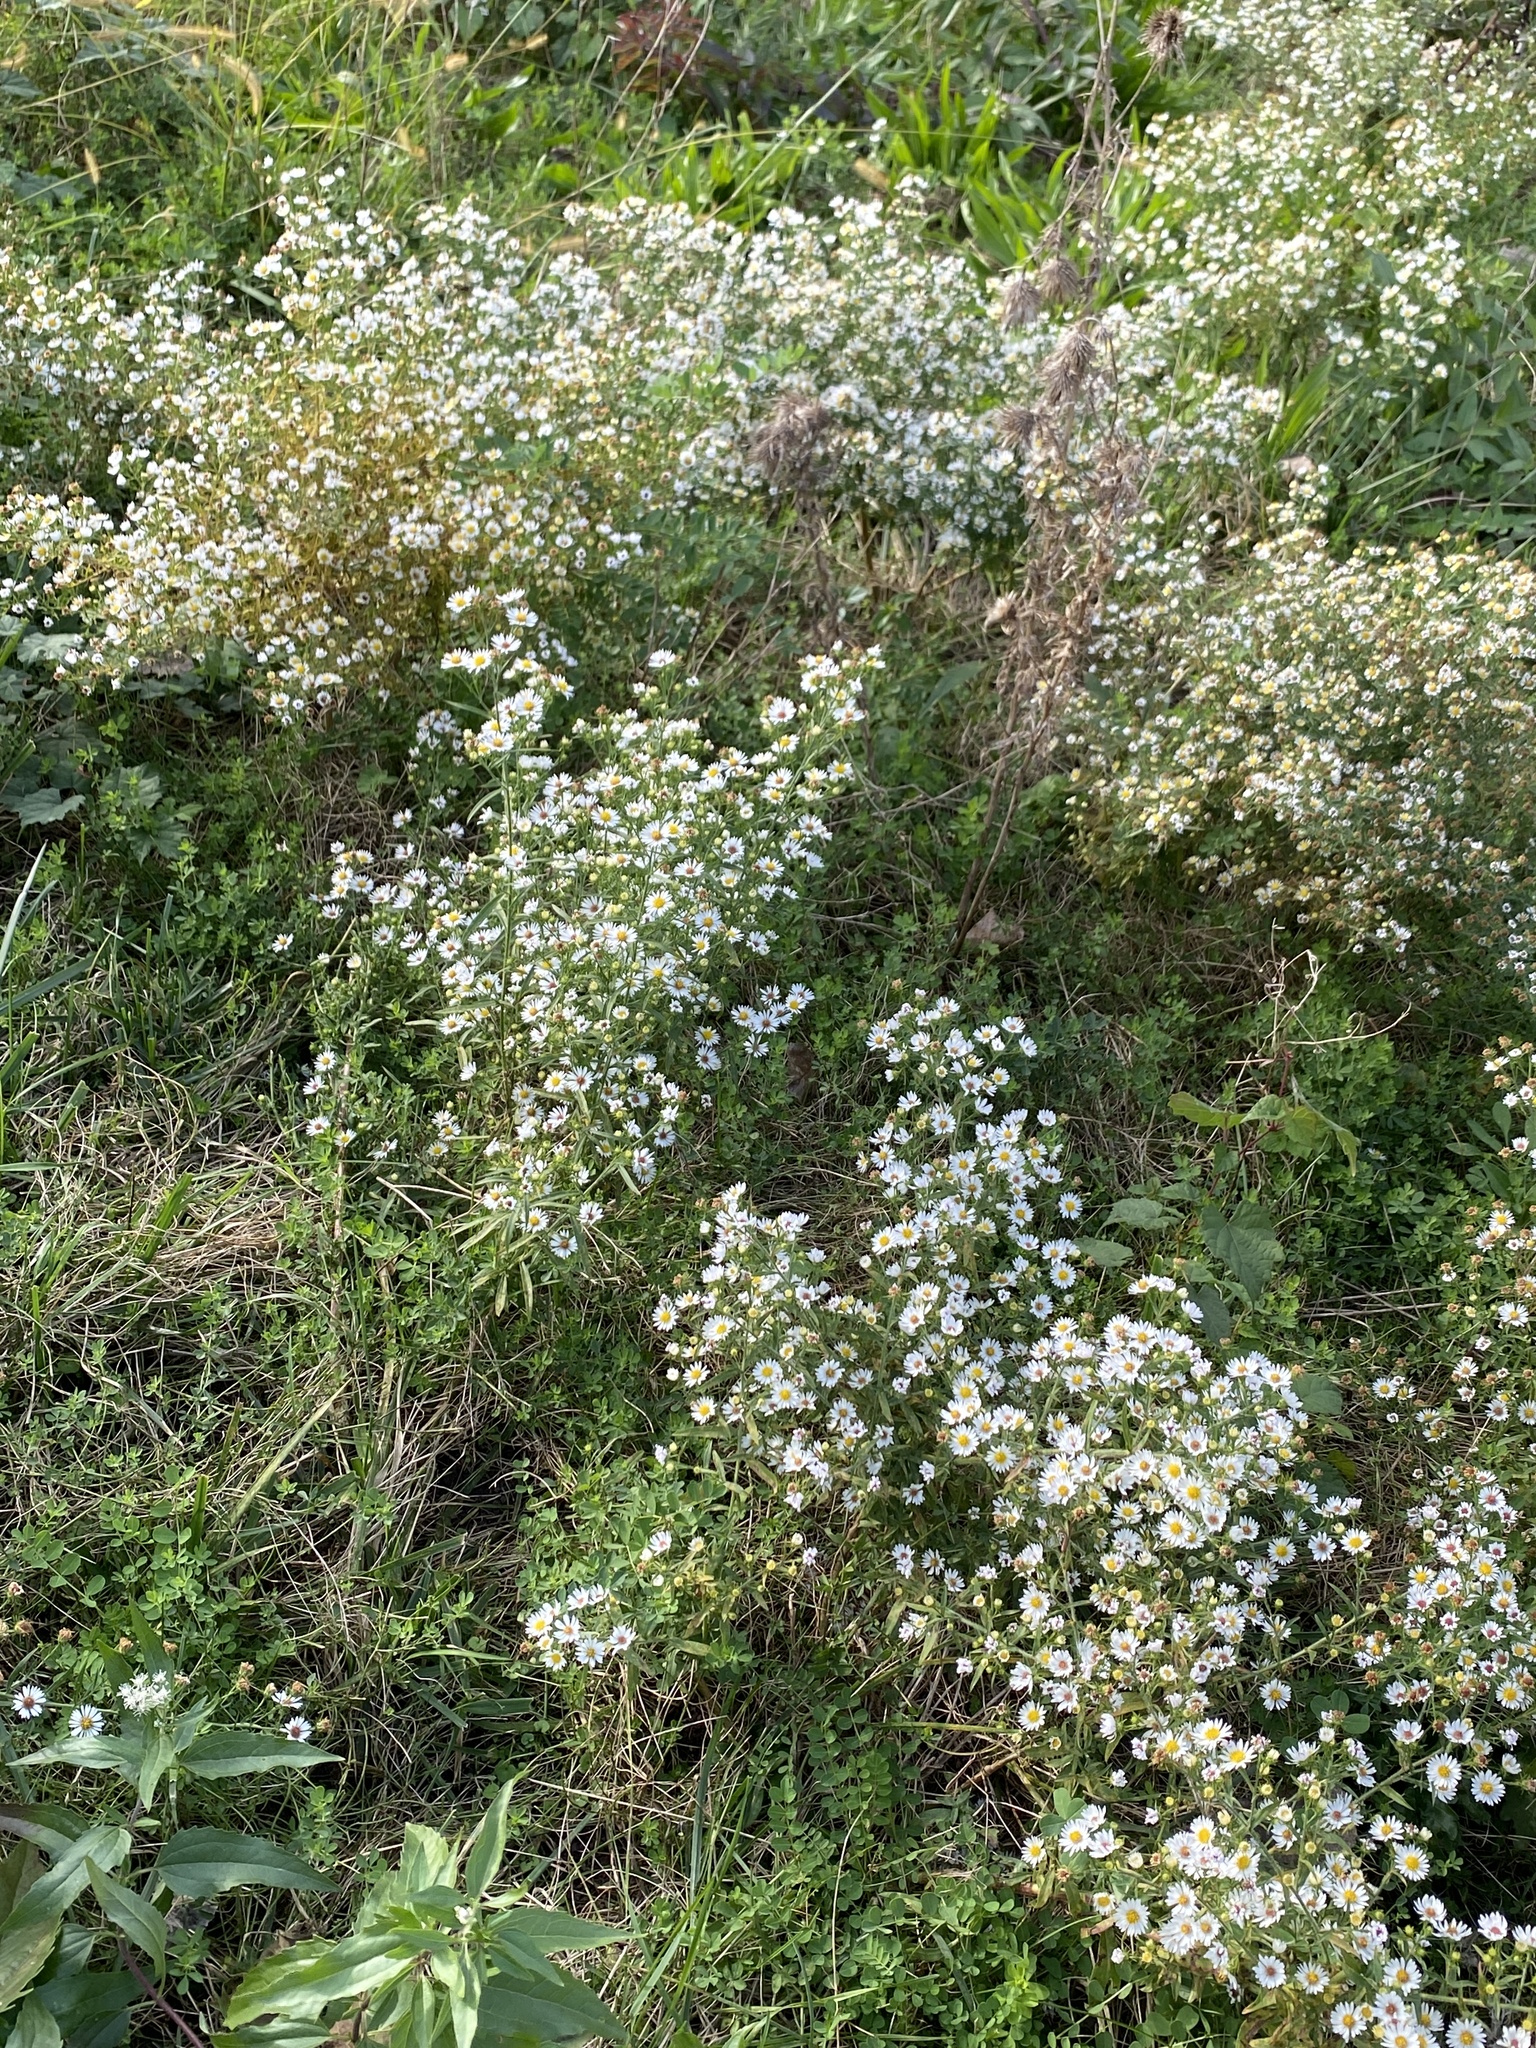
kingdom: Plantae
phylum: Tracheophyta
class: Magnoliopsida
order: Asterales
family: Asteraceae
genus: Symphyotrichum
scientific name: Symphyotrichum pilosum
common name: Awl aster
